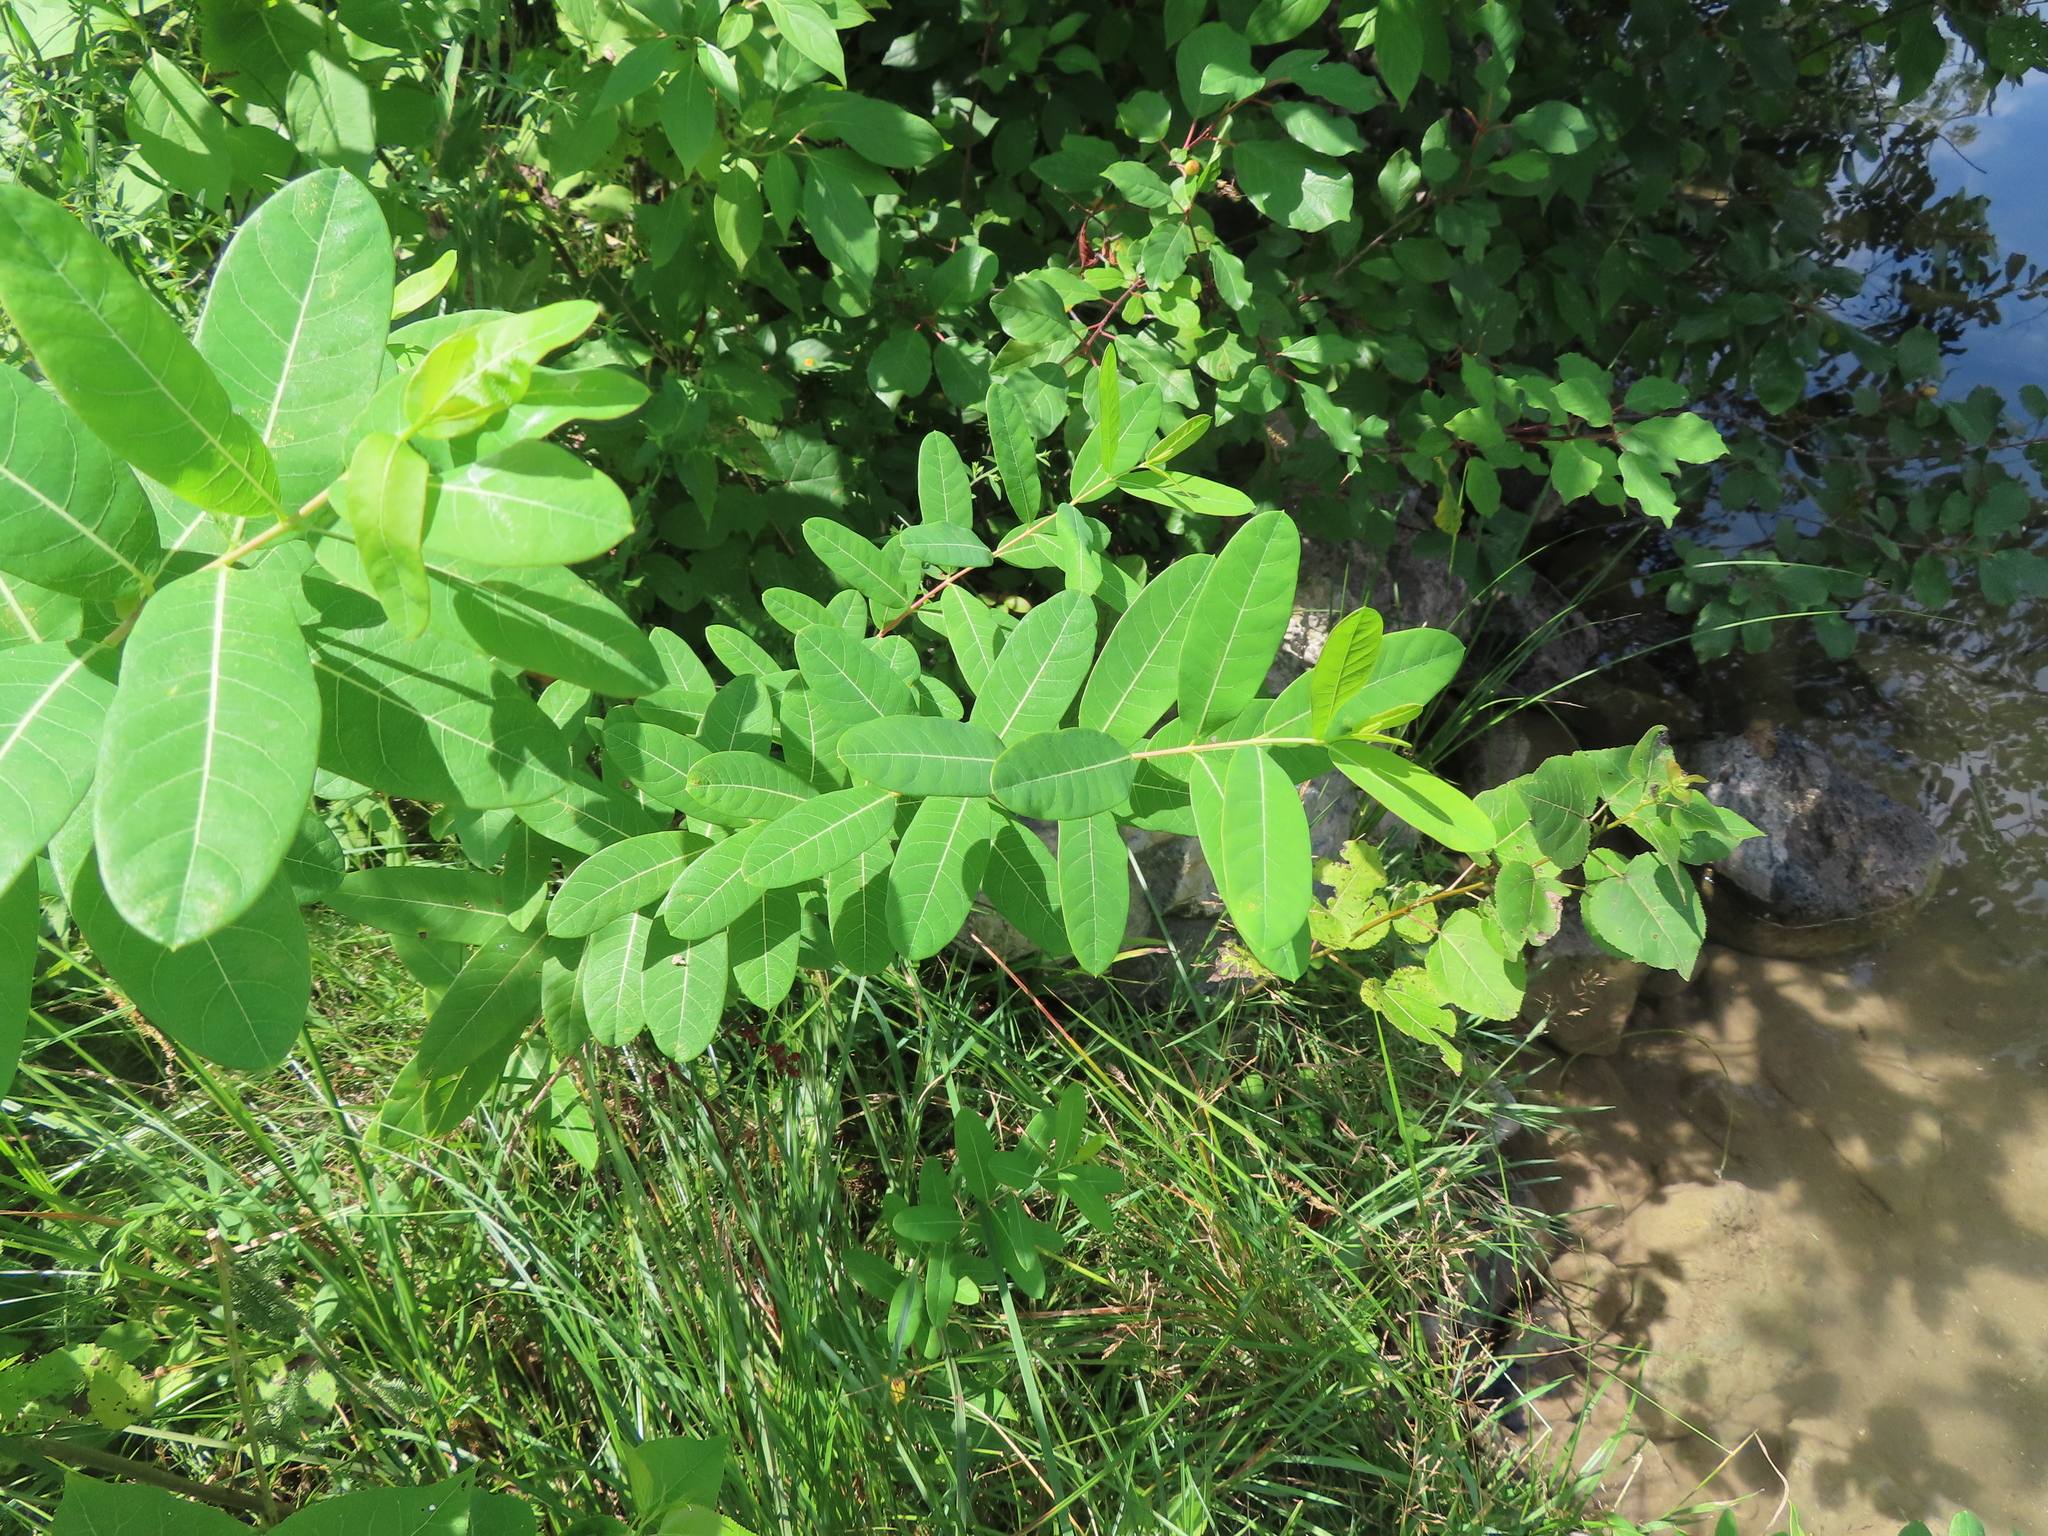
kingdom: Plantae
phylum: Tracheophyta
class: Magnoliopsida
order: Gentianales
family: Apocynaceae
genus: Apocynum
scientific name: Apocynum cannabinum
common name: Hemp dogbane
